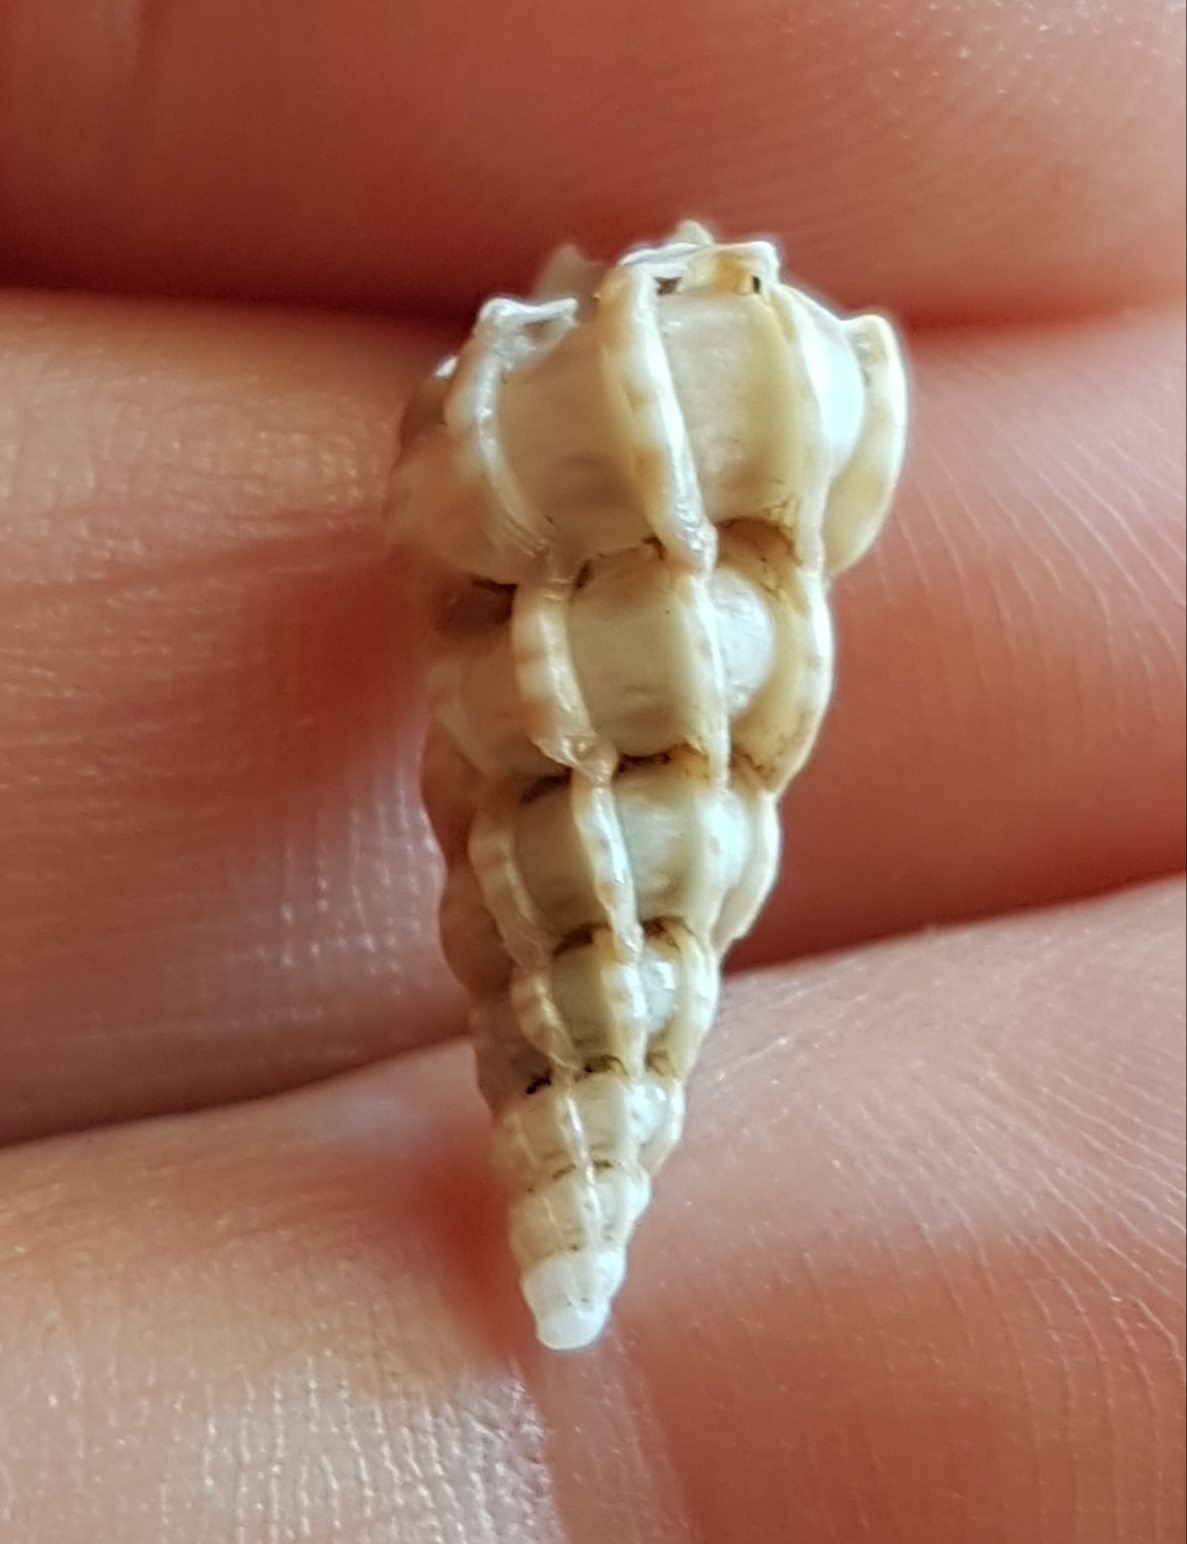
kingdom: Animalia
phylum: Mollusca
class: Gastropoda
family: Epitoniidae
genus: Epitonium
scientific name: Epitonium clathrus
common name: Common wentletrap
